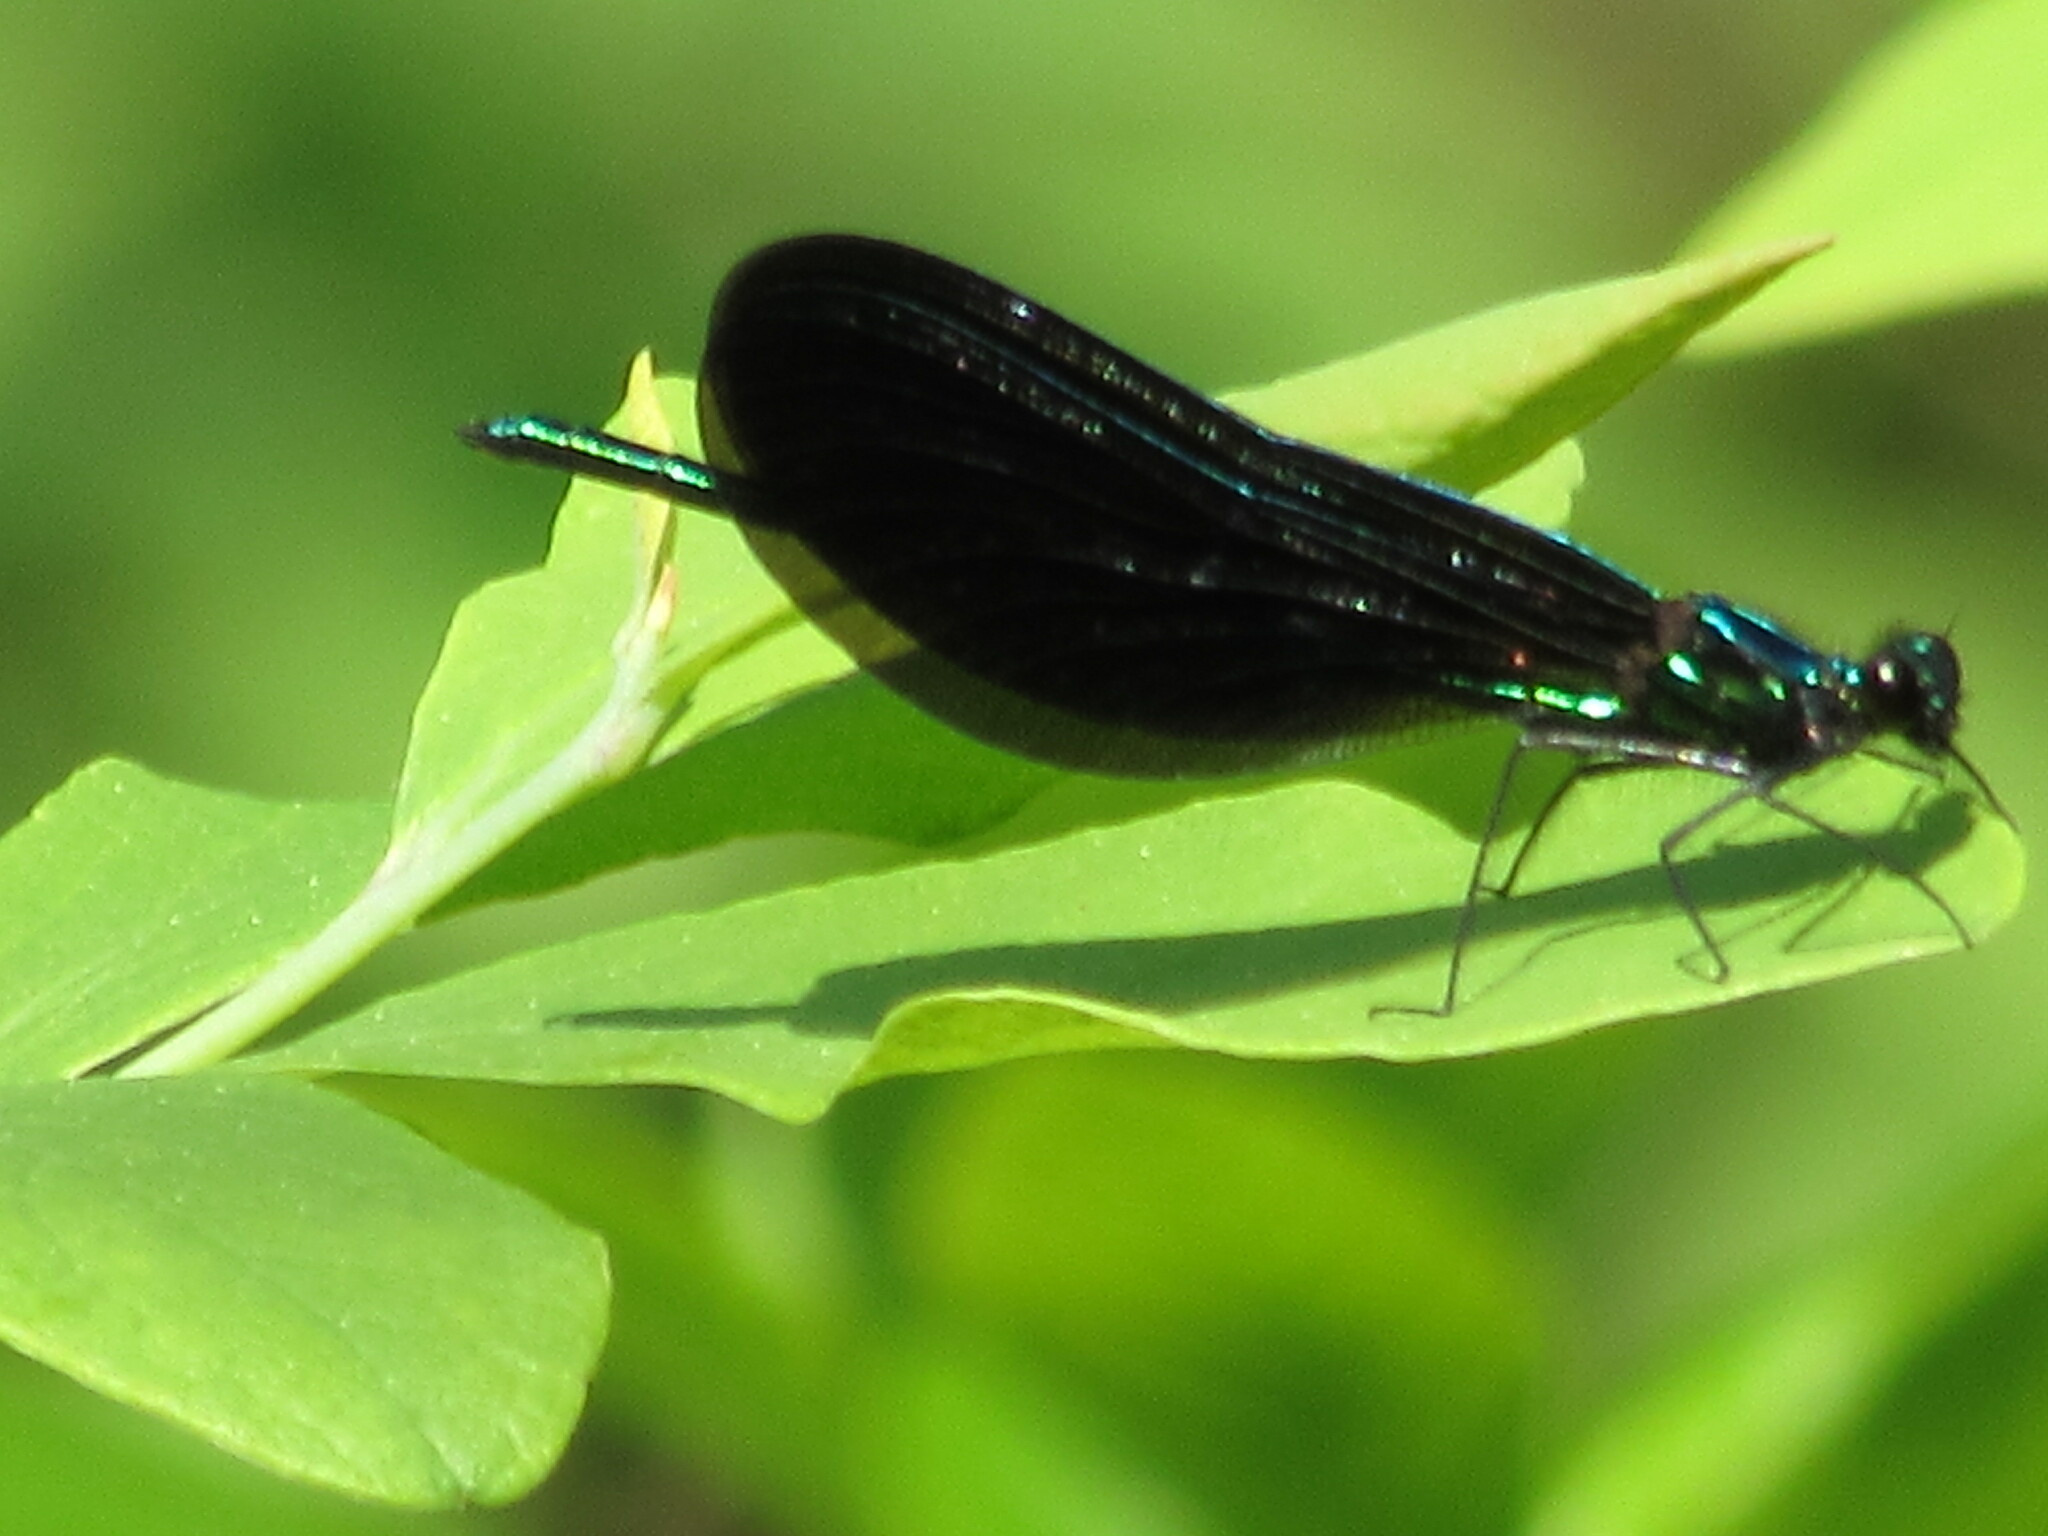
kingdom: Animalia
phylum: Arthropoda
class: Insecta
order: Odonata
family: Calopterygidae
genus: Calopteryx
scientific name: Calopteryx maculata
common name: Ebony jewelwing
